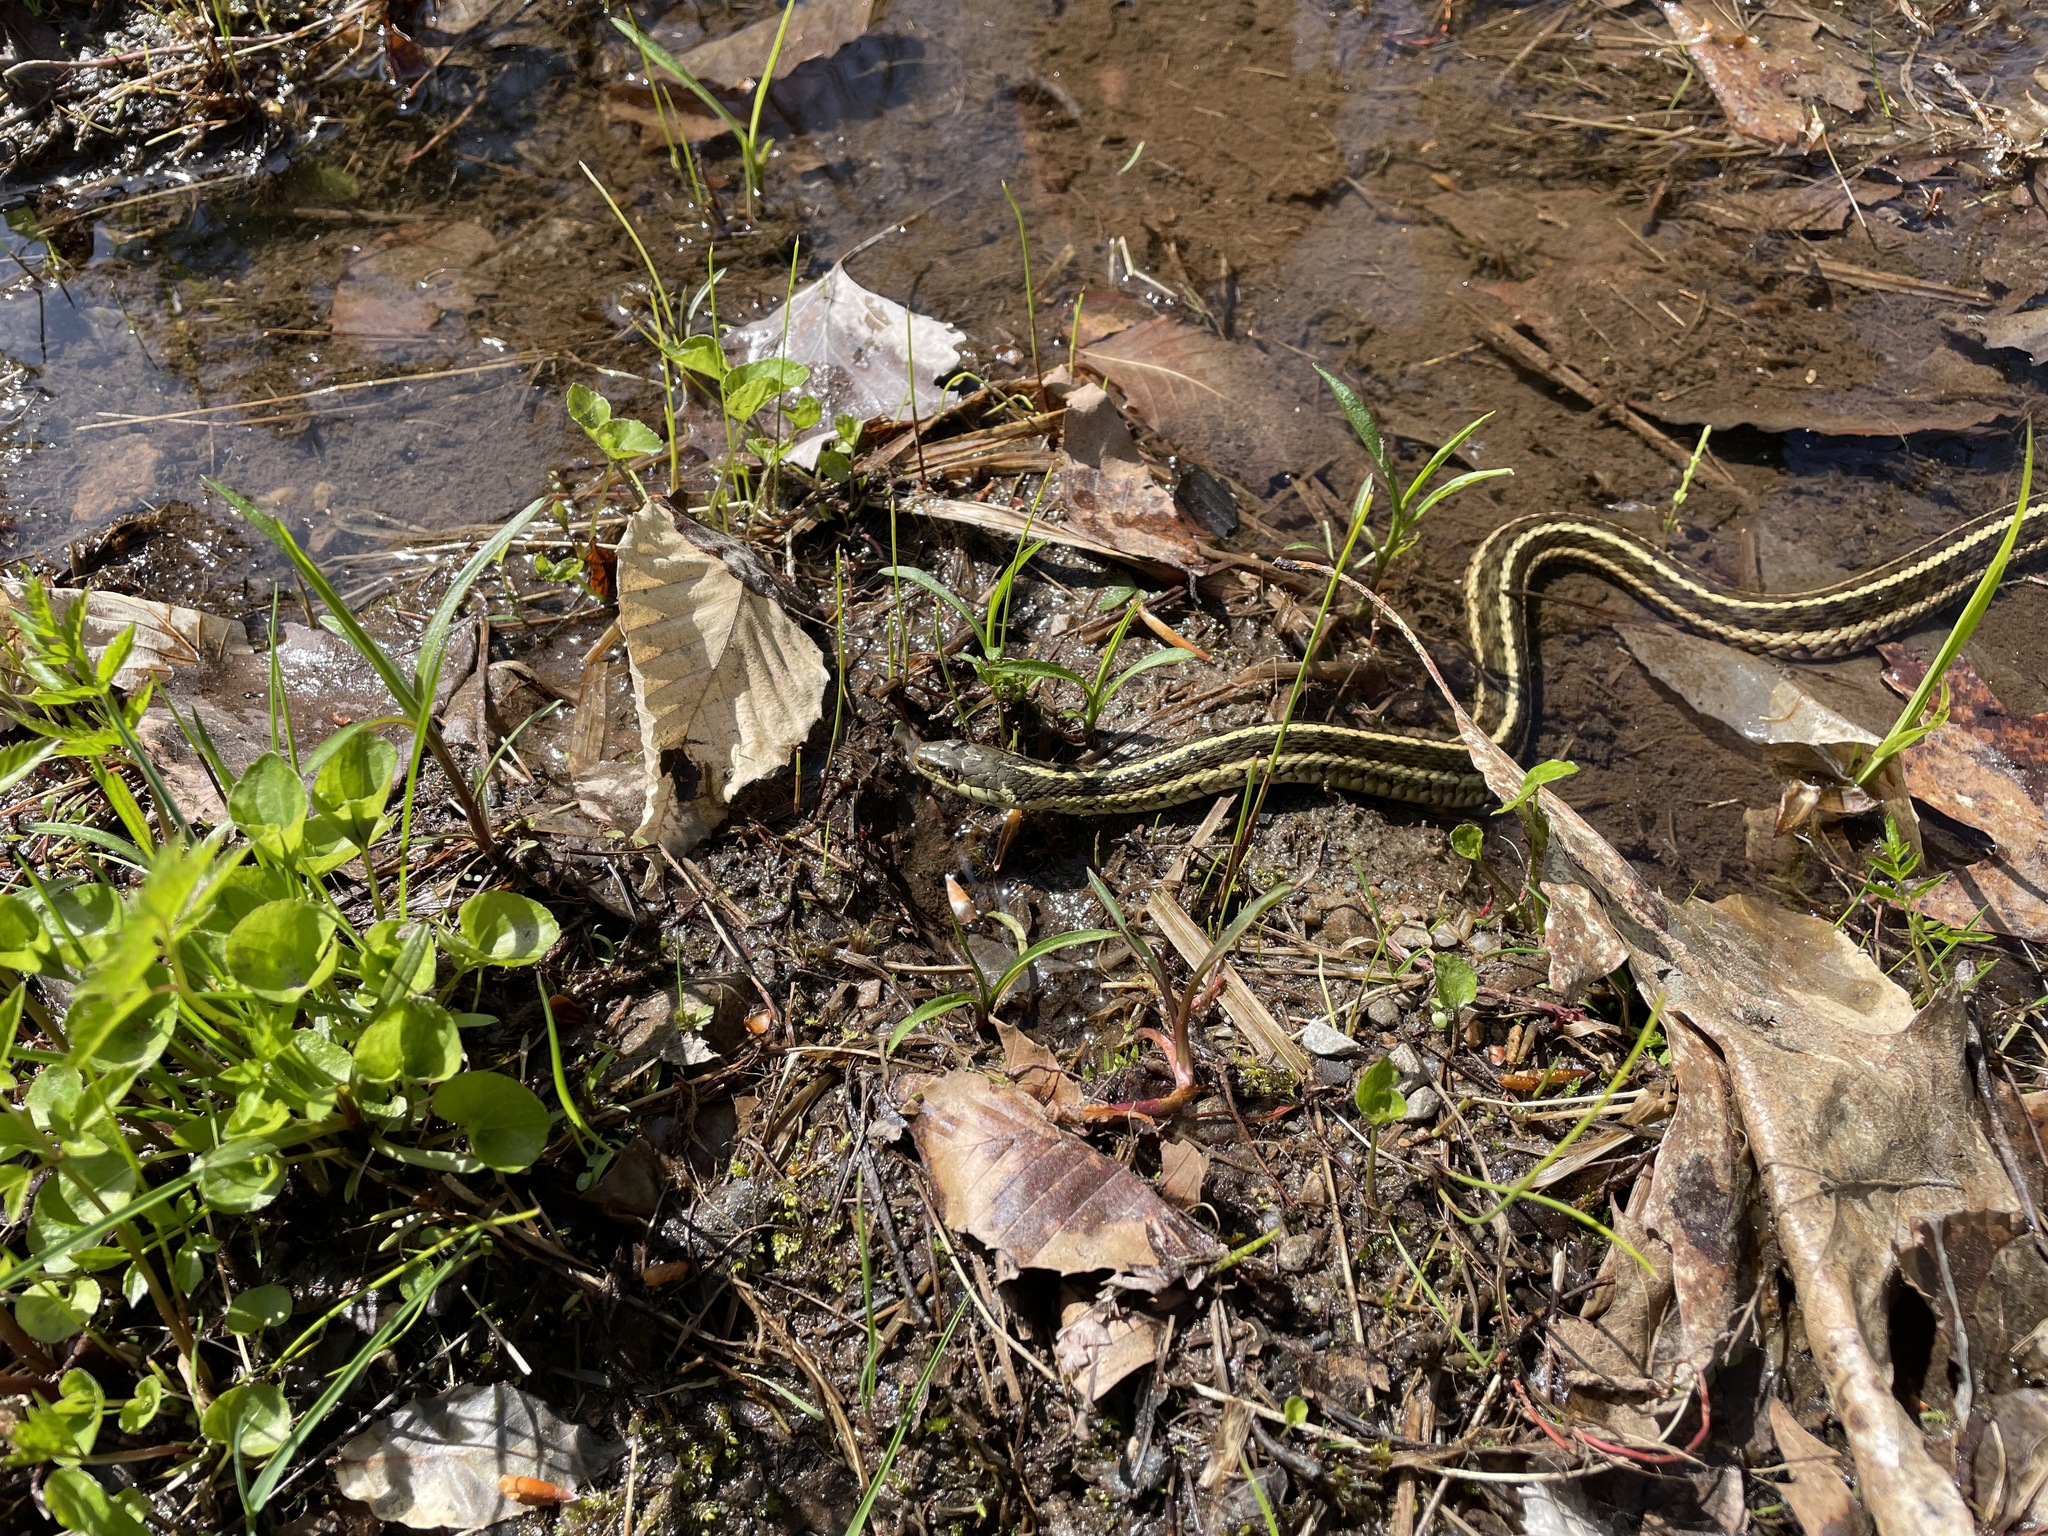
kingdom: Animalia
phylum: Chordata
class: Squamata
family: Colubridae
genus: Thamnophis
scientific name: Thamnophis sirtalis
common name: Common garter snake
